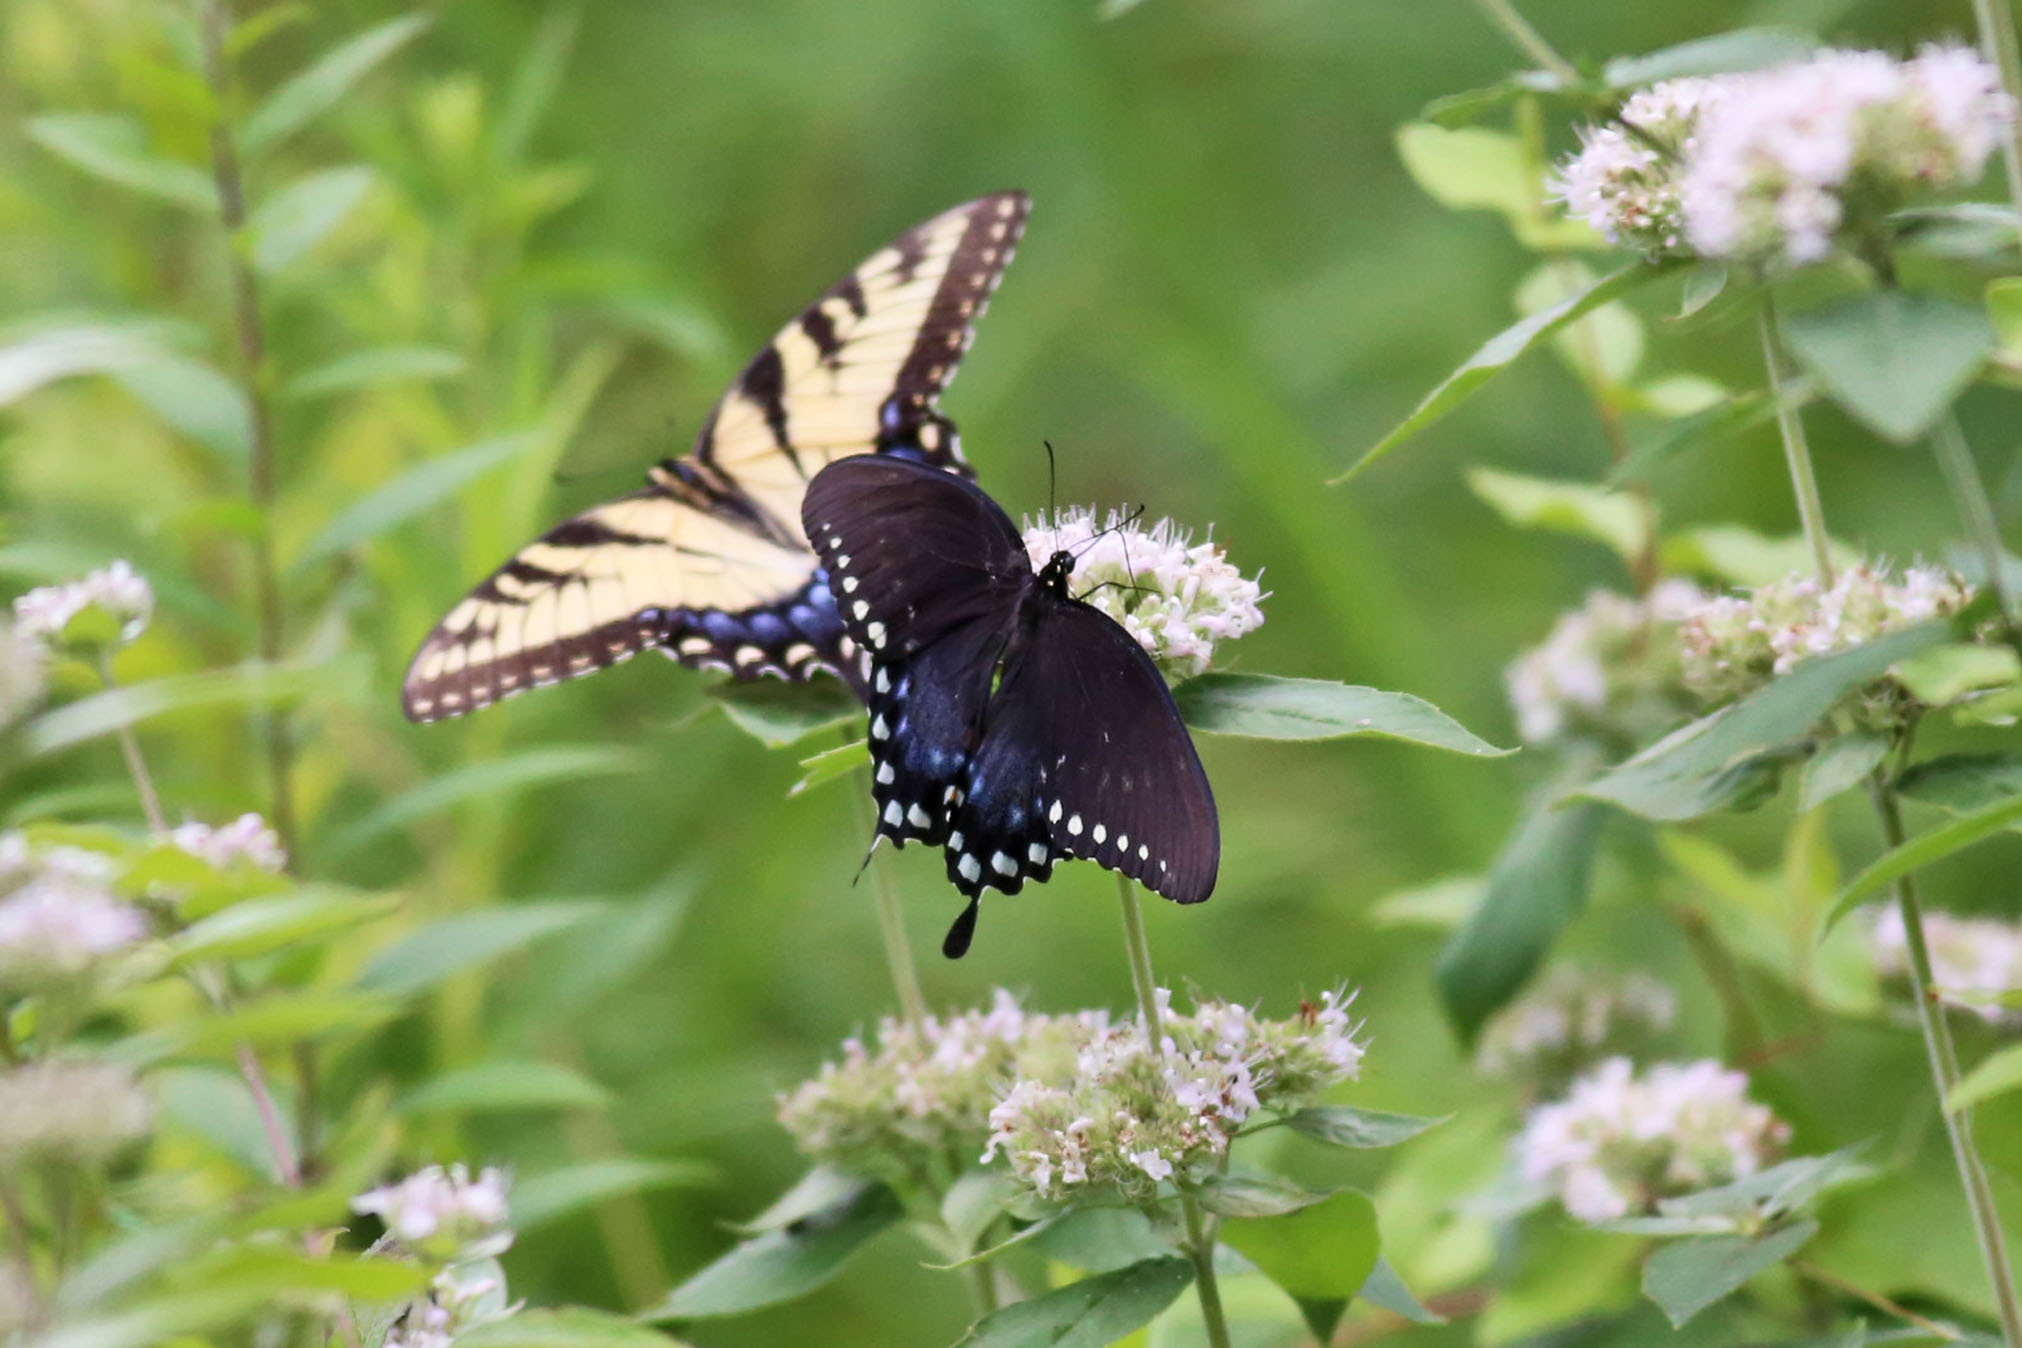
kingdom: Animalia
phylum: Arthropoda
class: Insecta
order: Lepidoptera
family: Papilionidae
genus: Papilio
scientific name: Papilio troilus
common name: Spicebush swallowtail
